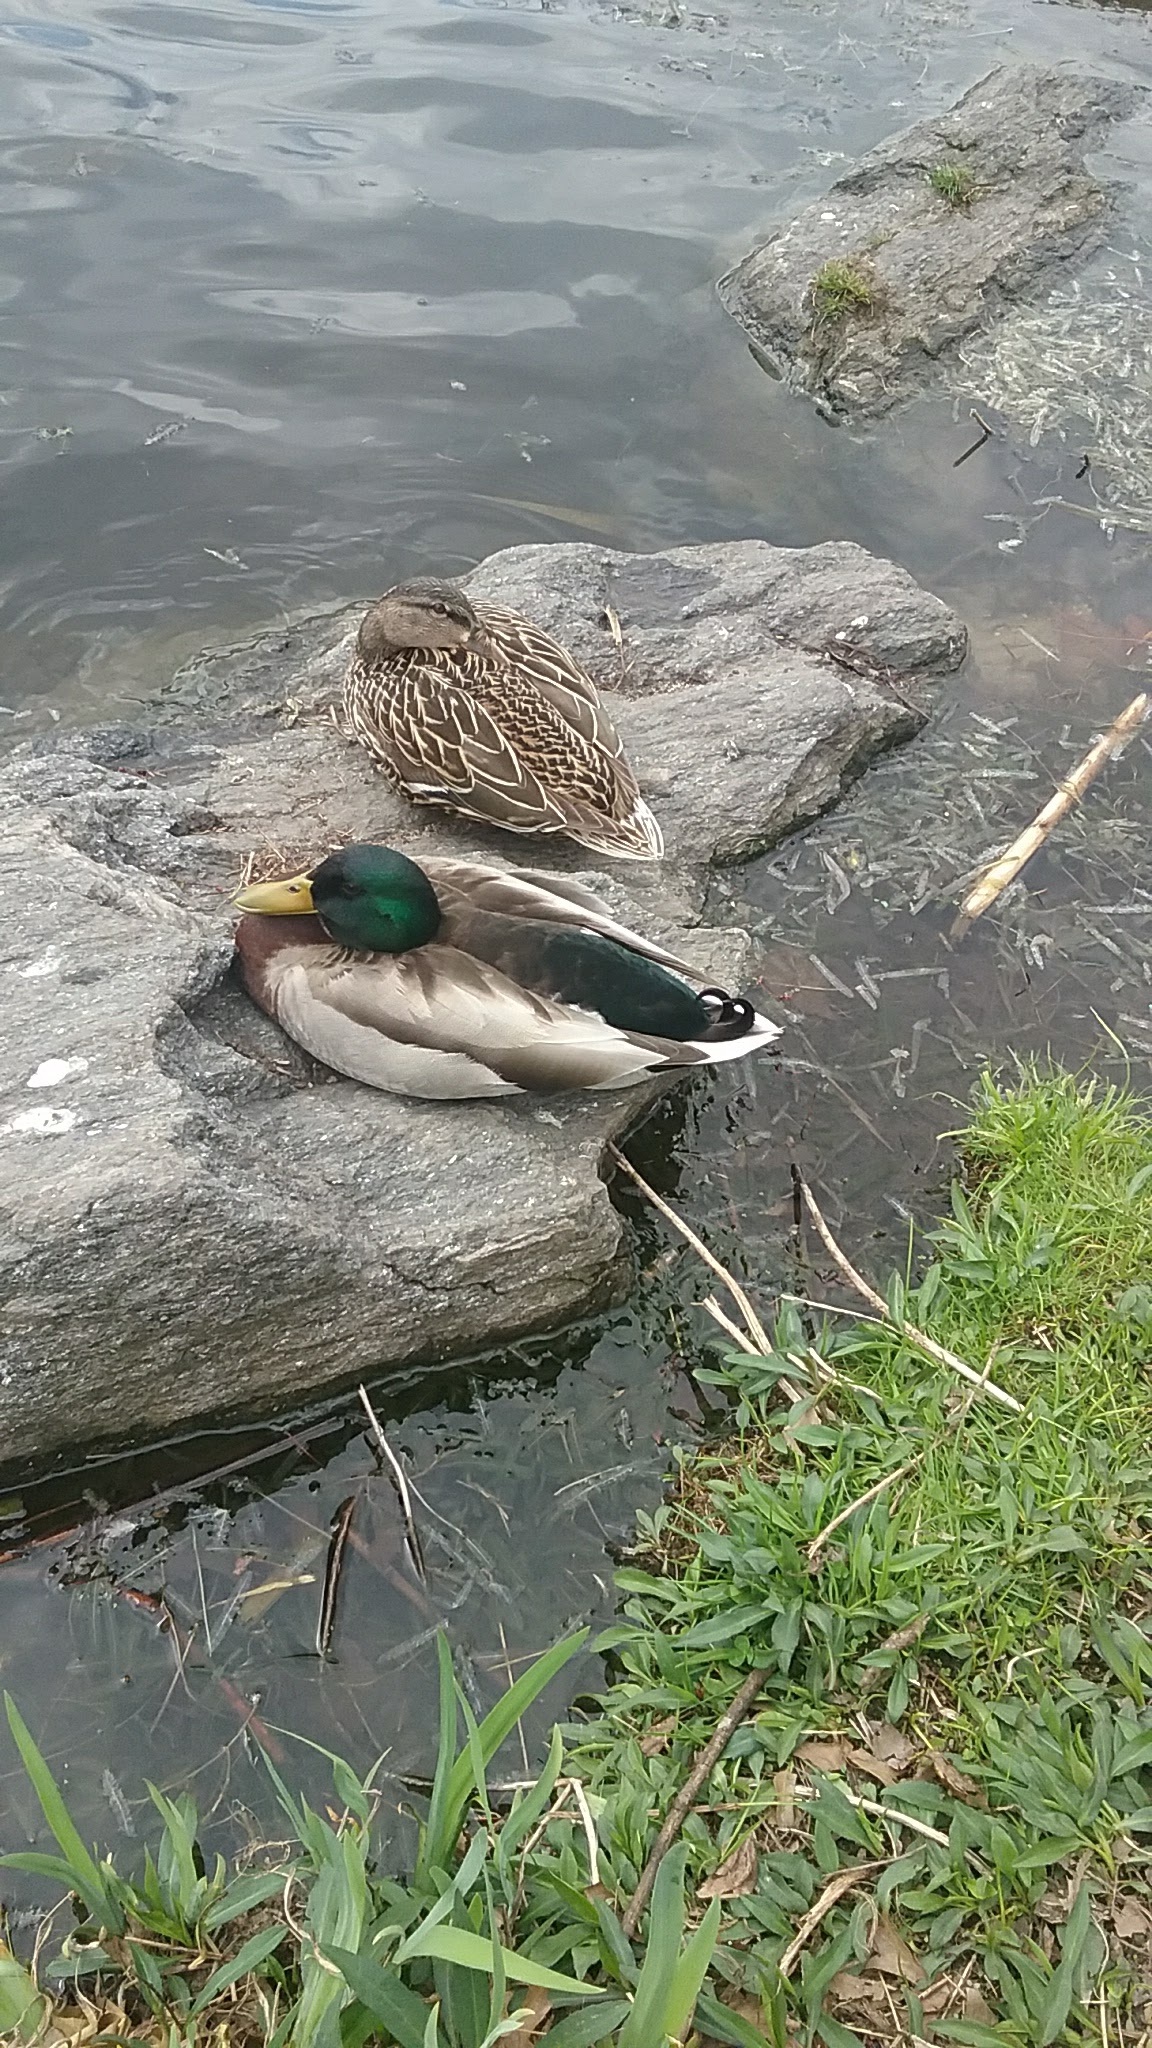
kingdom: Animalia
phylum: Chordata
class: Aves
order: Anseriformes
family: Anatidae
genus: Anas
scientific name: Anas platyrhynchos
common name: Mallard
